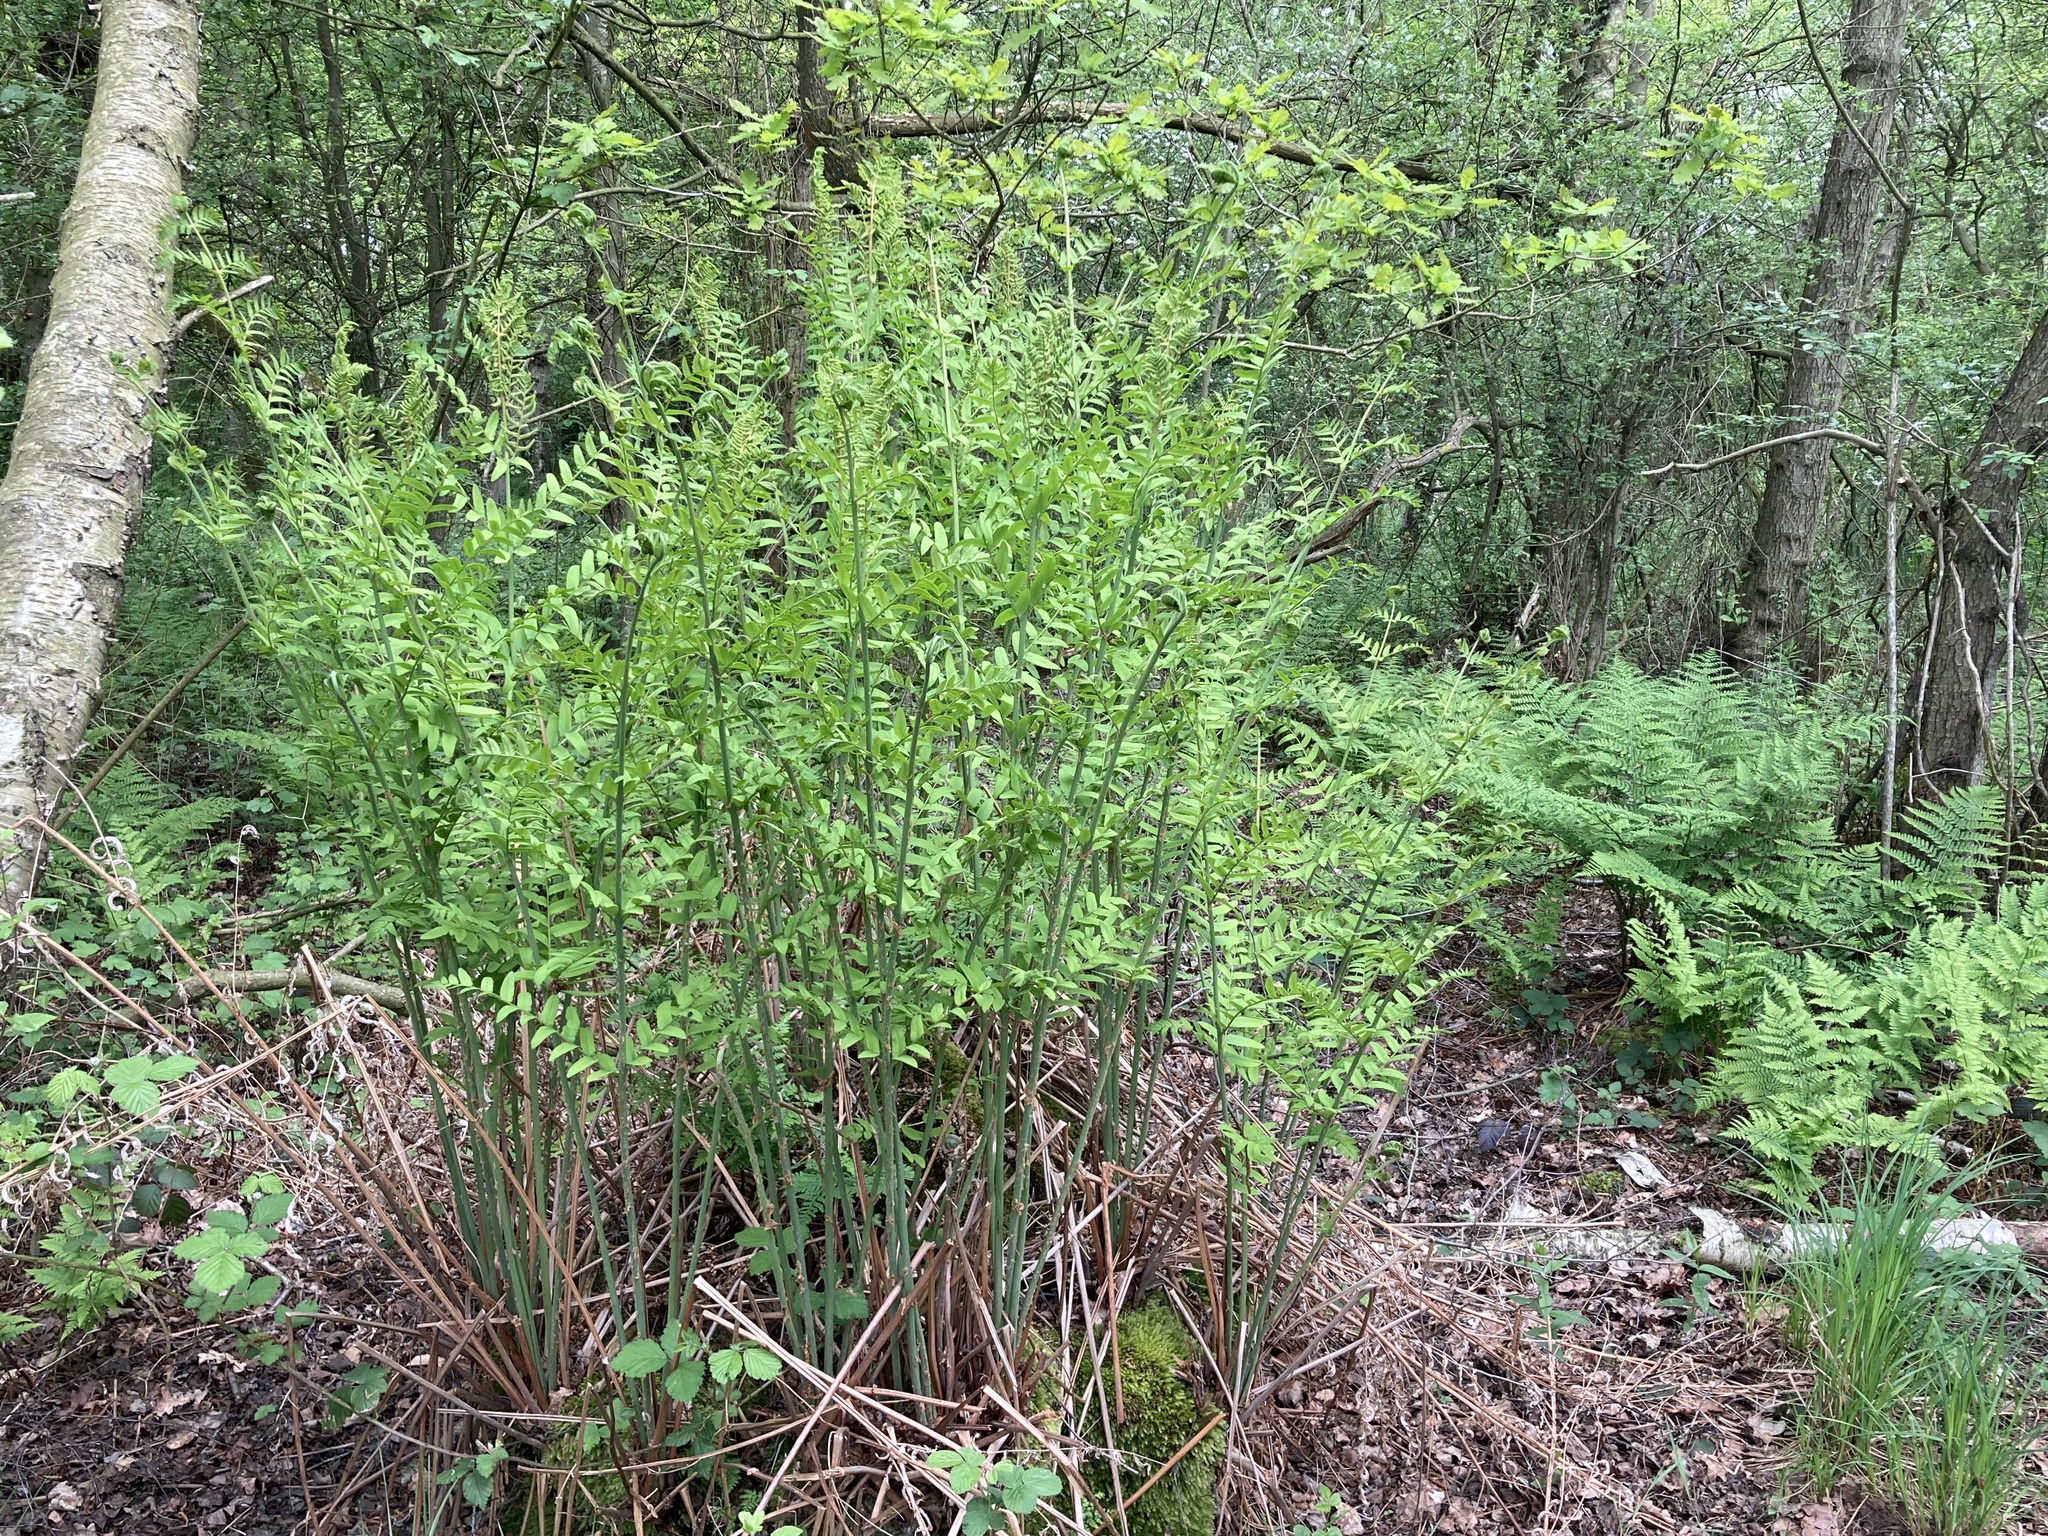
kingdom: Plantae
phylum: Tracheophyta
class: Polypodiopsida
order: Osmundales
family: Osmundaceae
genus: Osmunda
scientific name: Osmunda regalis
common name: Royal fern
